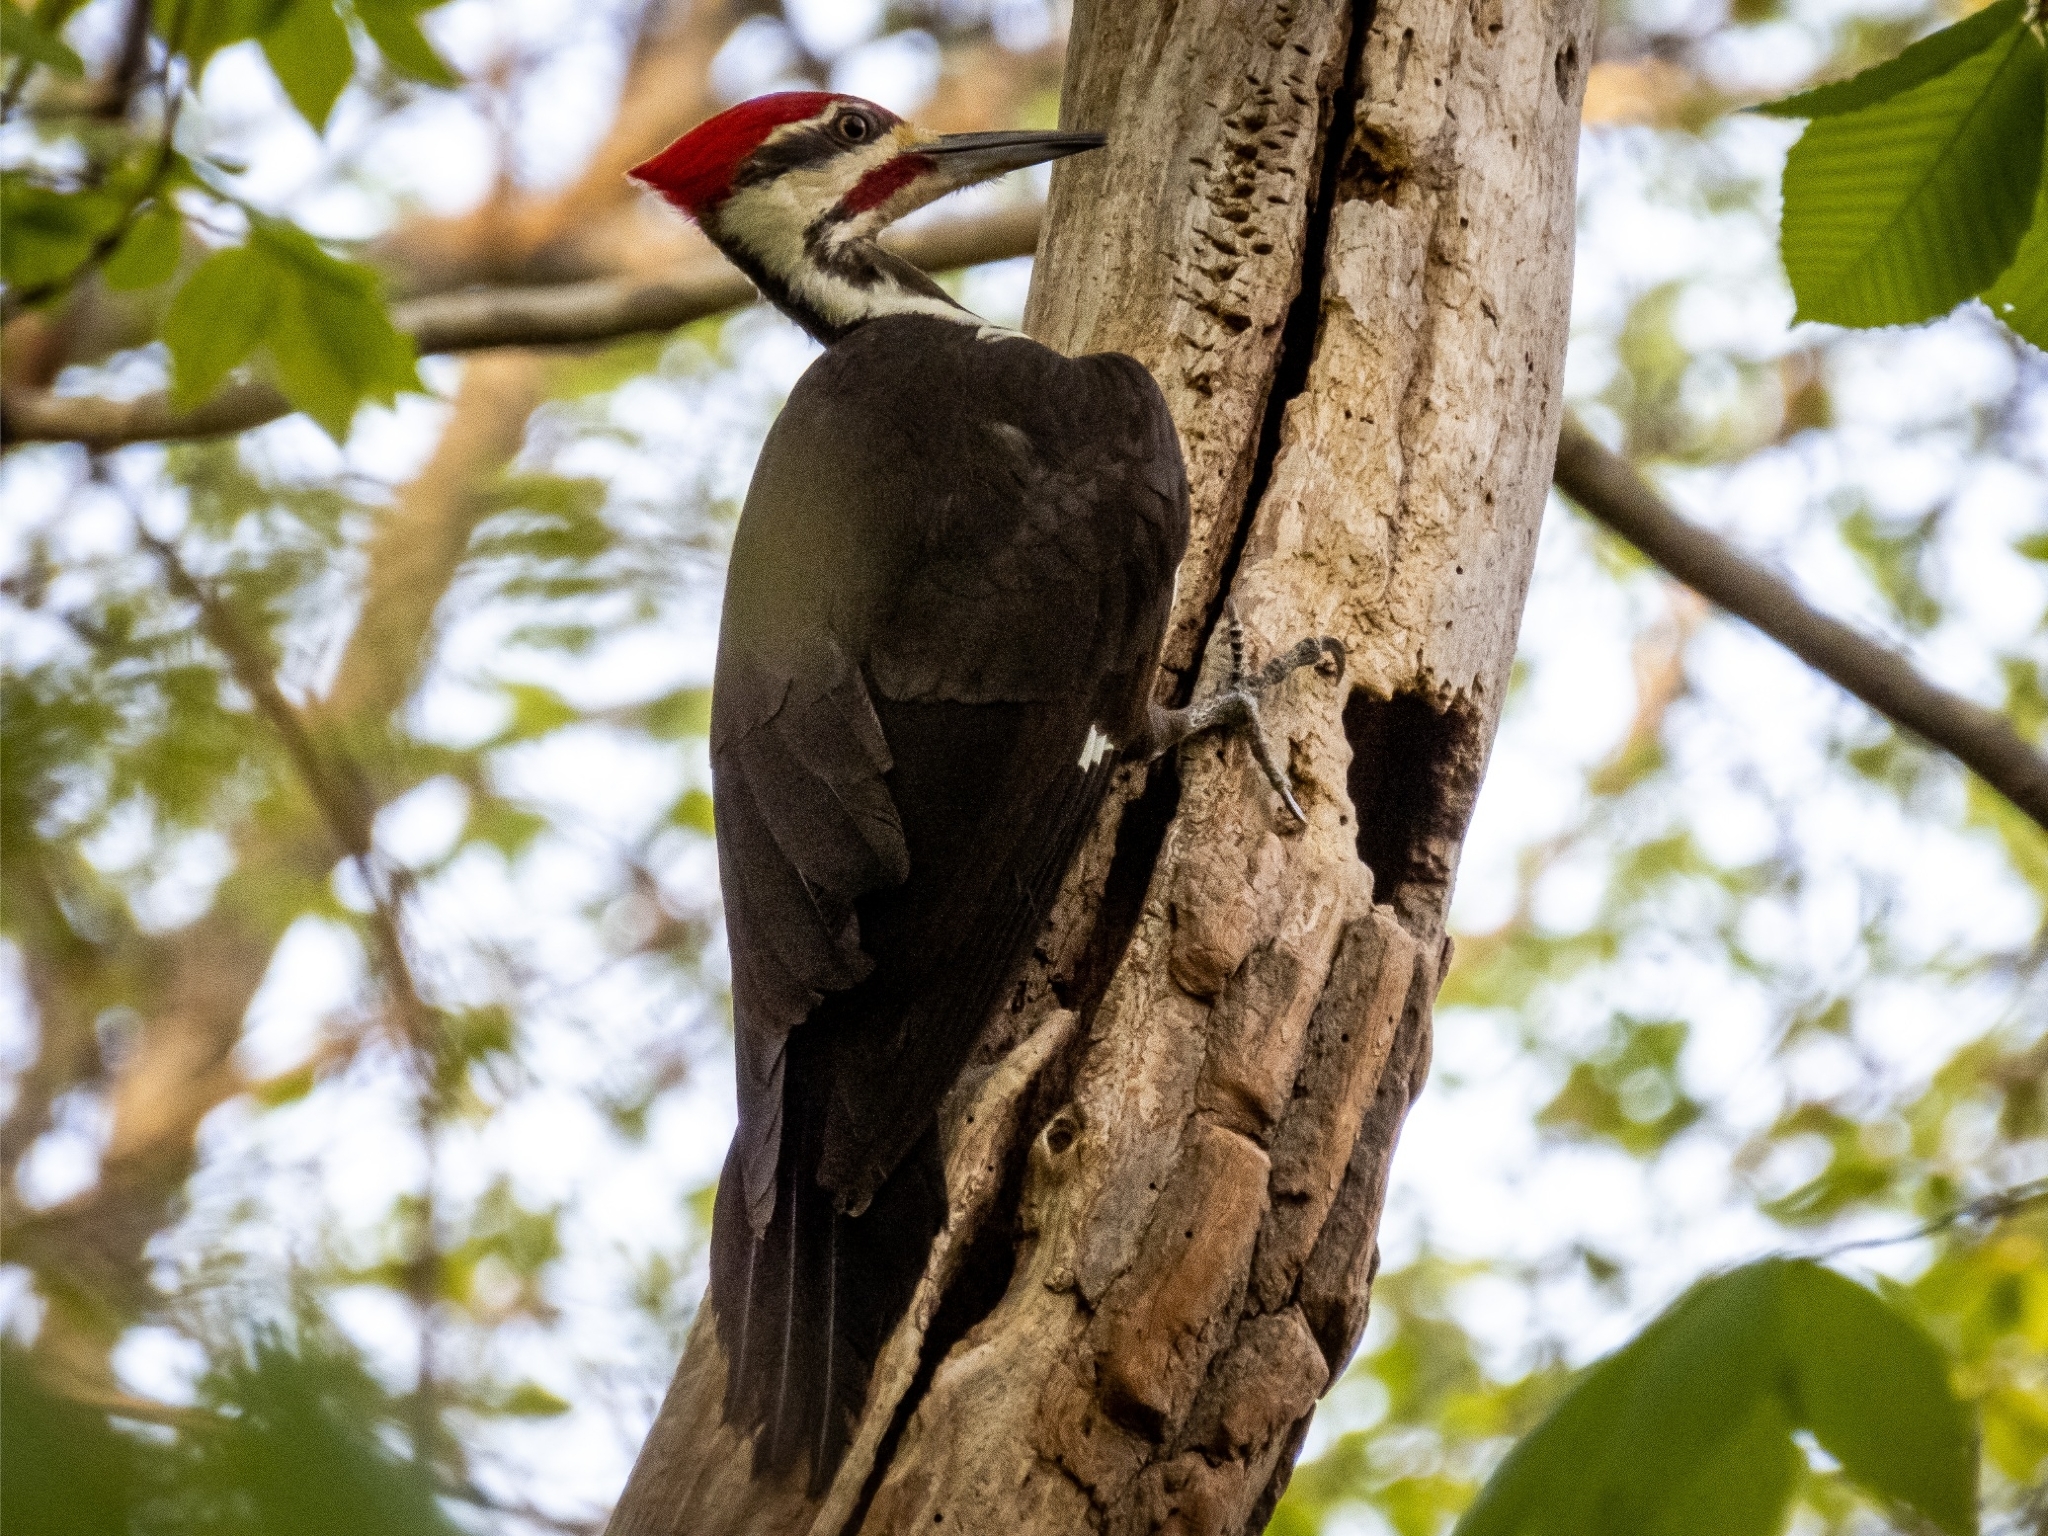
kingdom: Animalia
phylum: Chordata
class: Aves
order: Piciformes
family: Picidae
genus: Dryocopus
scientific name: Dryocopus pileatus
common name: Pileated woodpecker
